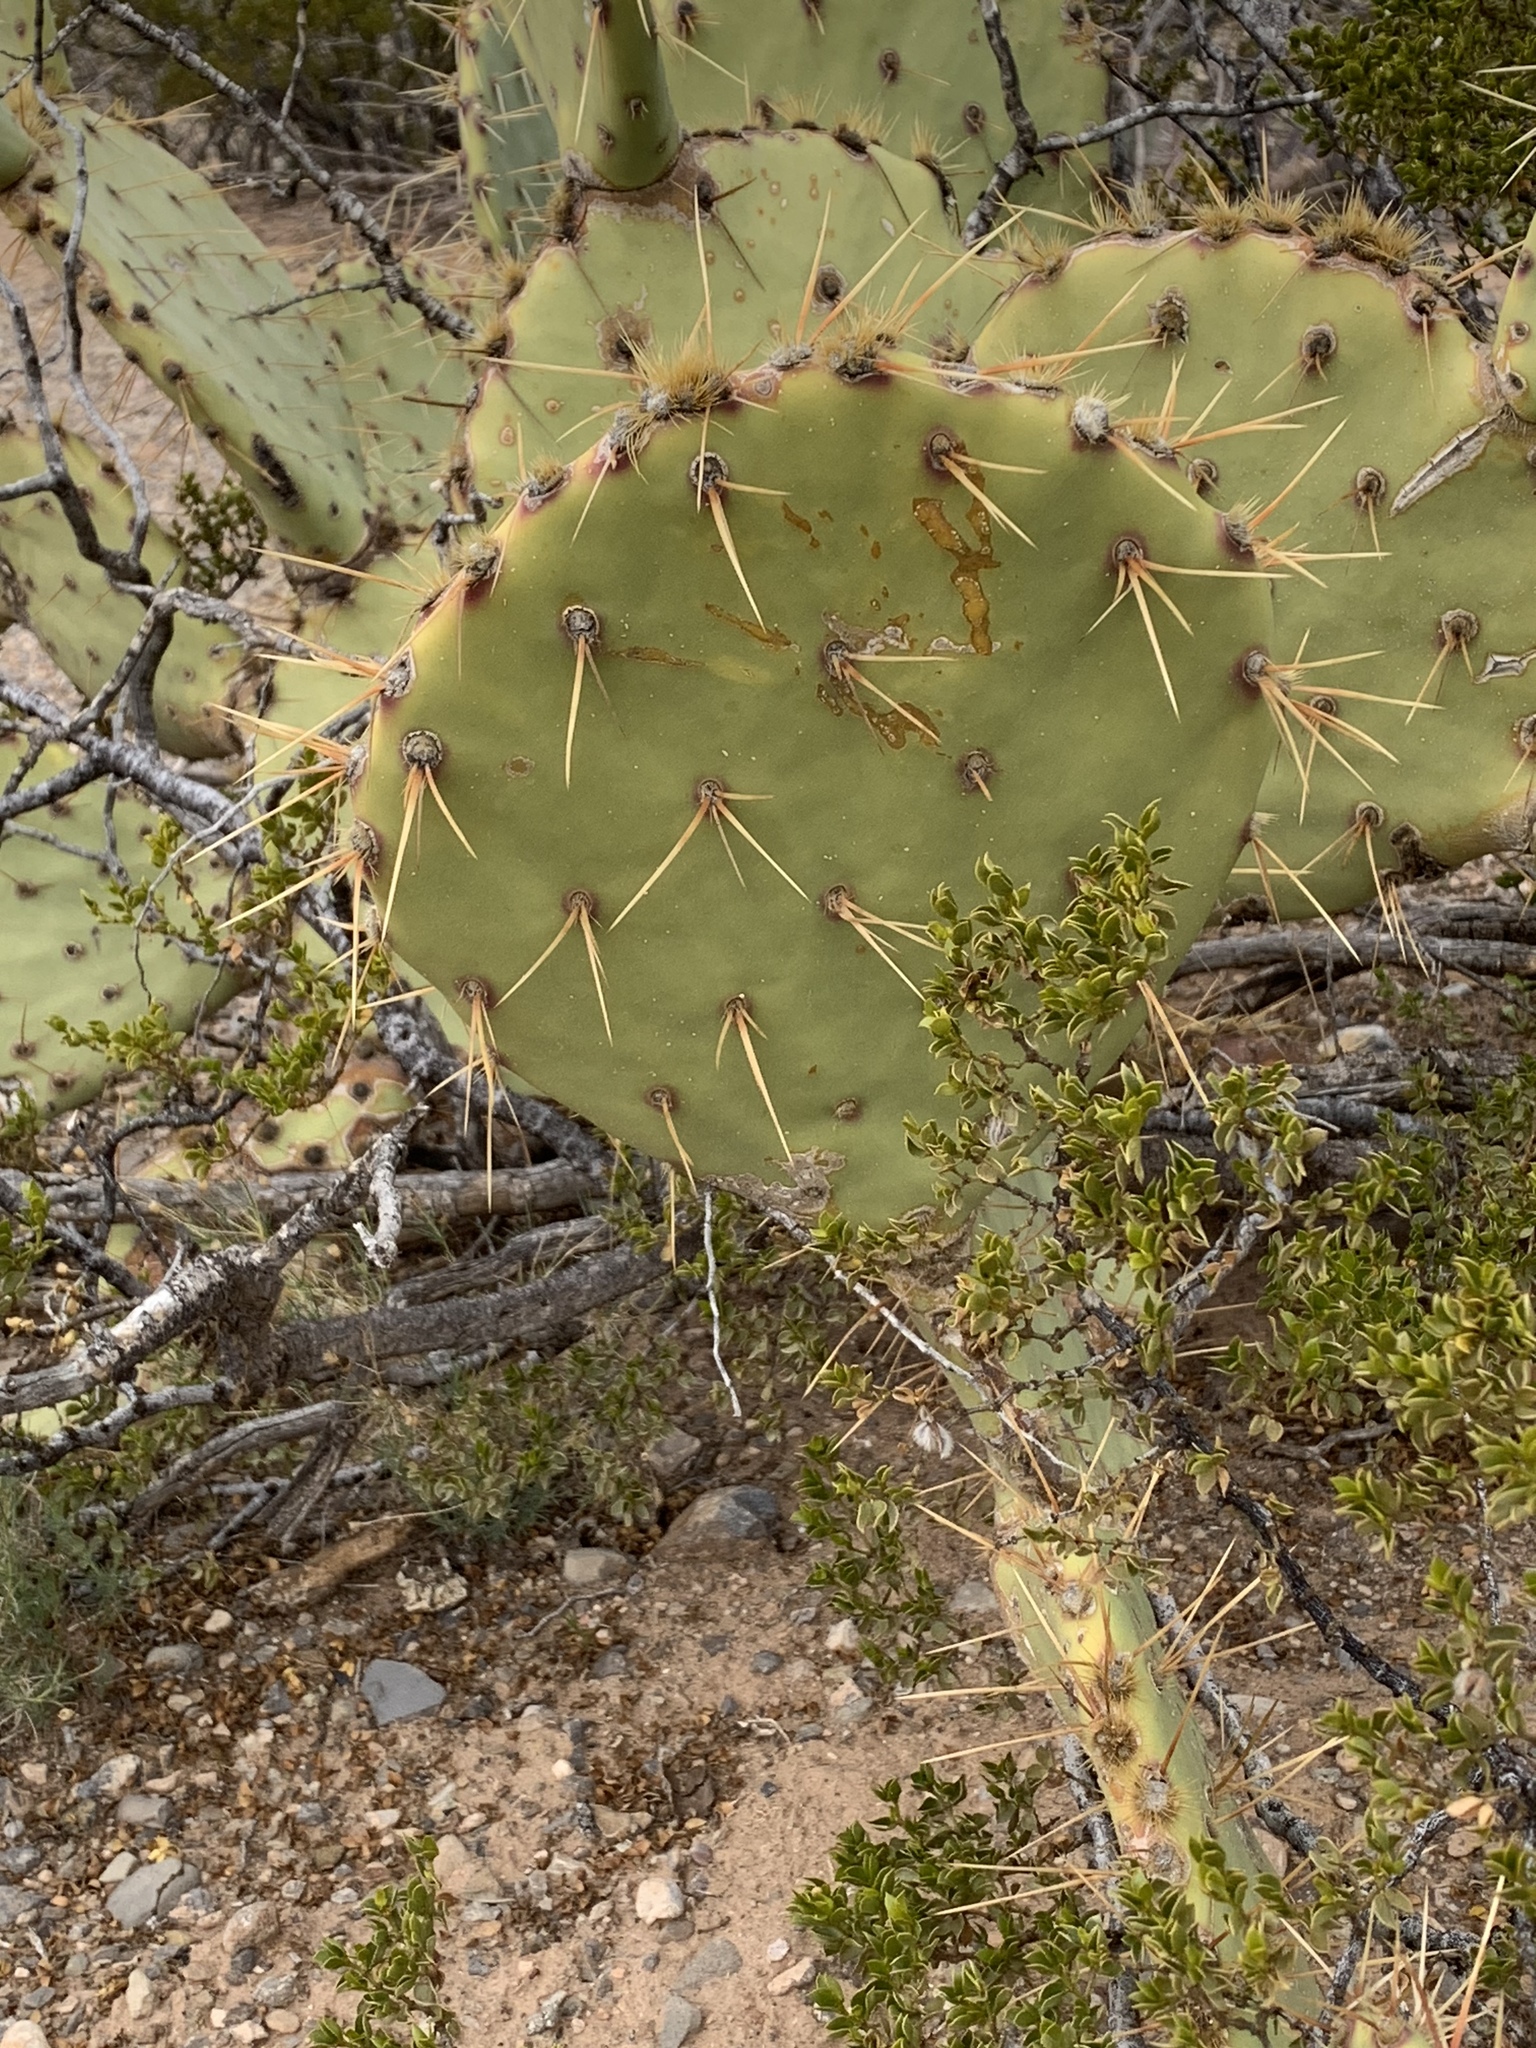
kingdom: Plantae
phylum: Tracheophyta
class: Magnoliopsida
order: Caryophyllales
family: Cactaceae
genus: Opuntia
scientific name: Opuntia engelmannii
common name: Cactus-apple
